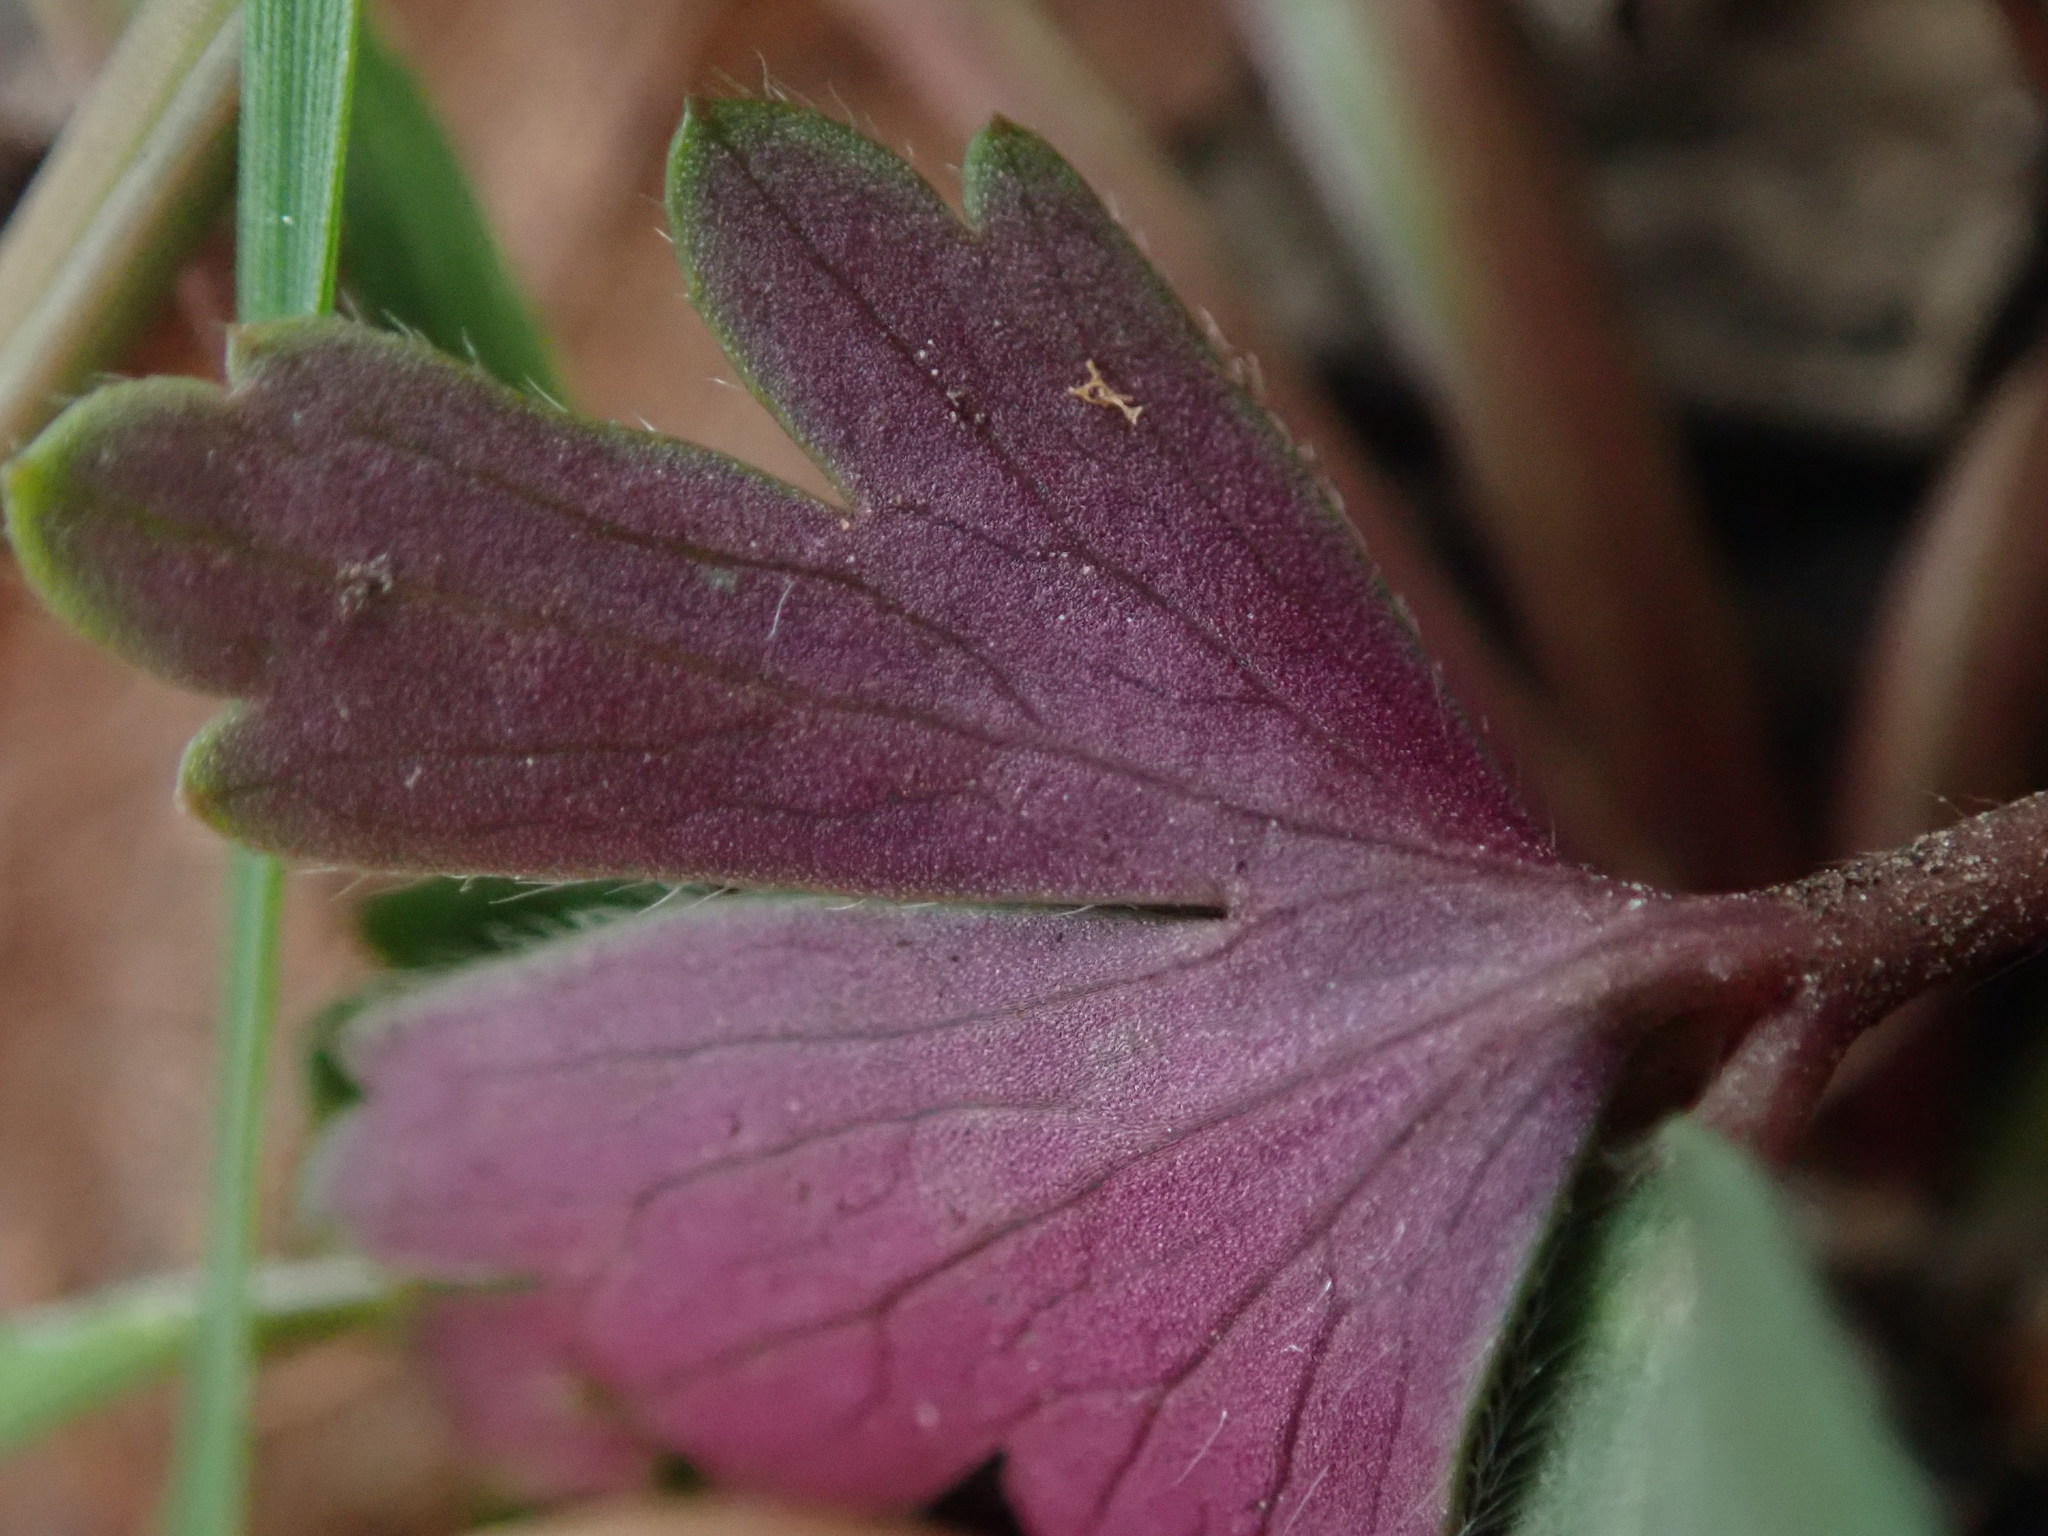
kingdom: Plantae
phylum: Tracheophyta
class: Magnoliopsida
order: Ranunculales
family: Ranunculaceae
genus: Anemone
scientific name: Anemone blanda
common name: Balkan anemone
